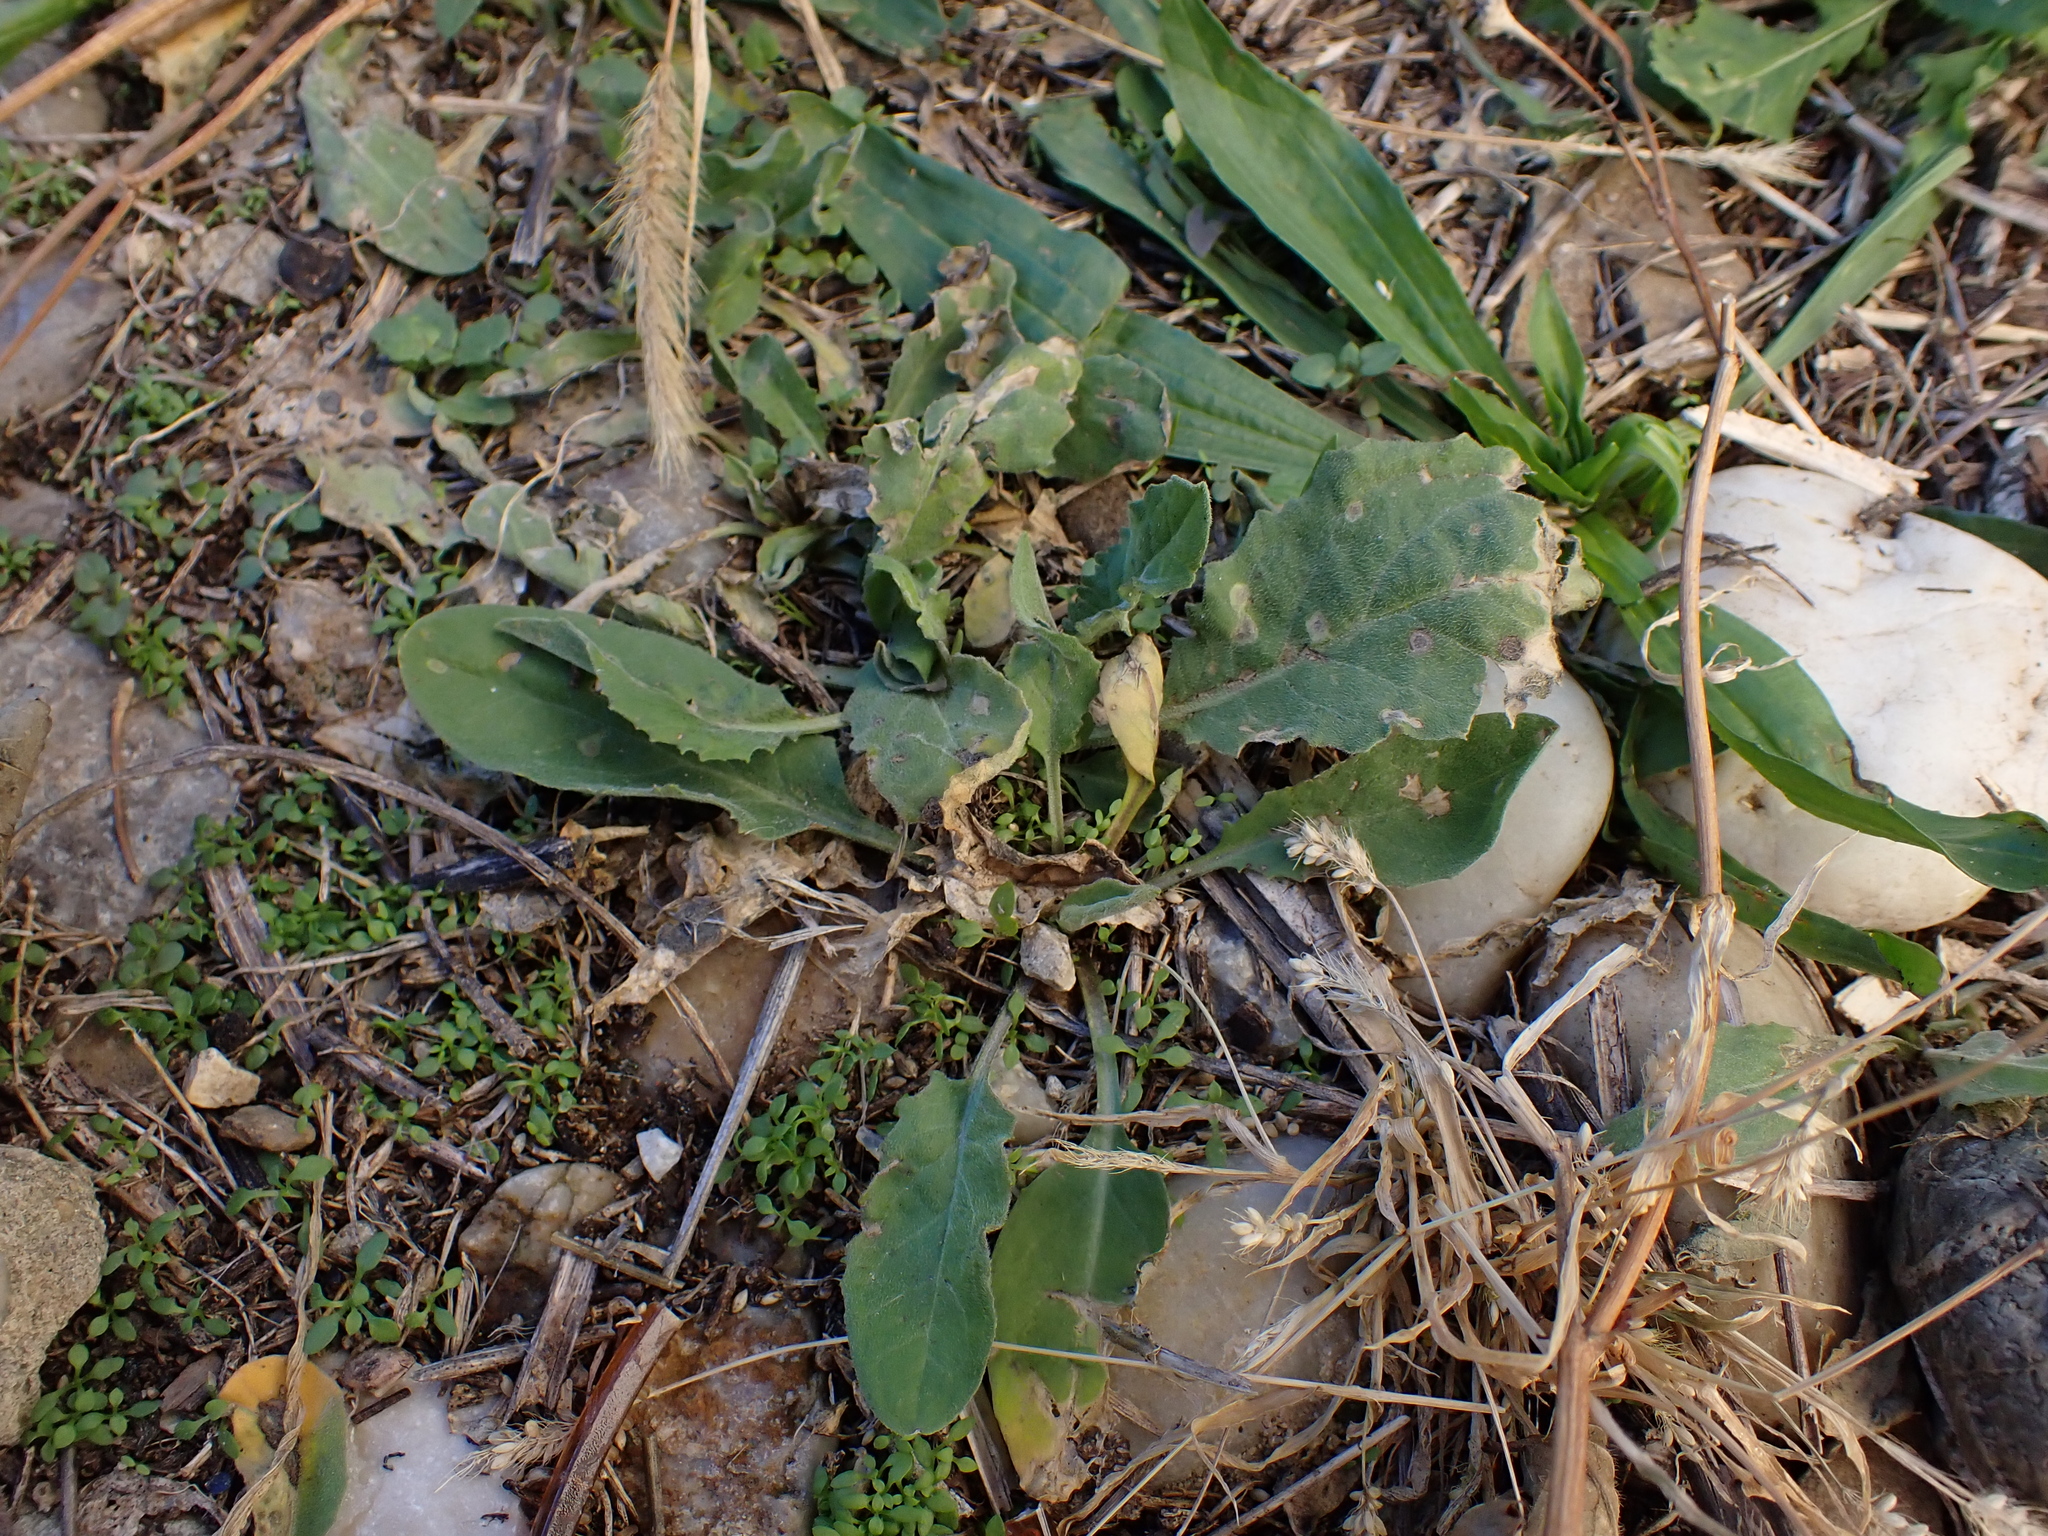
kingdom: Plantae
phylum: Tracheophyta
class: Magnoliopsida
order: Brassicales
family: Brassicaceae
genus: Lepidium
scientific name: Lepidium draba
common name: Hoary cress
